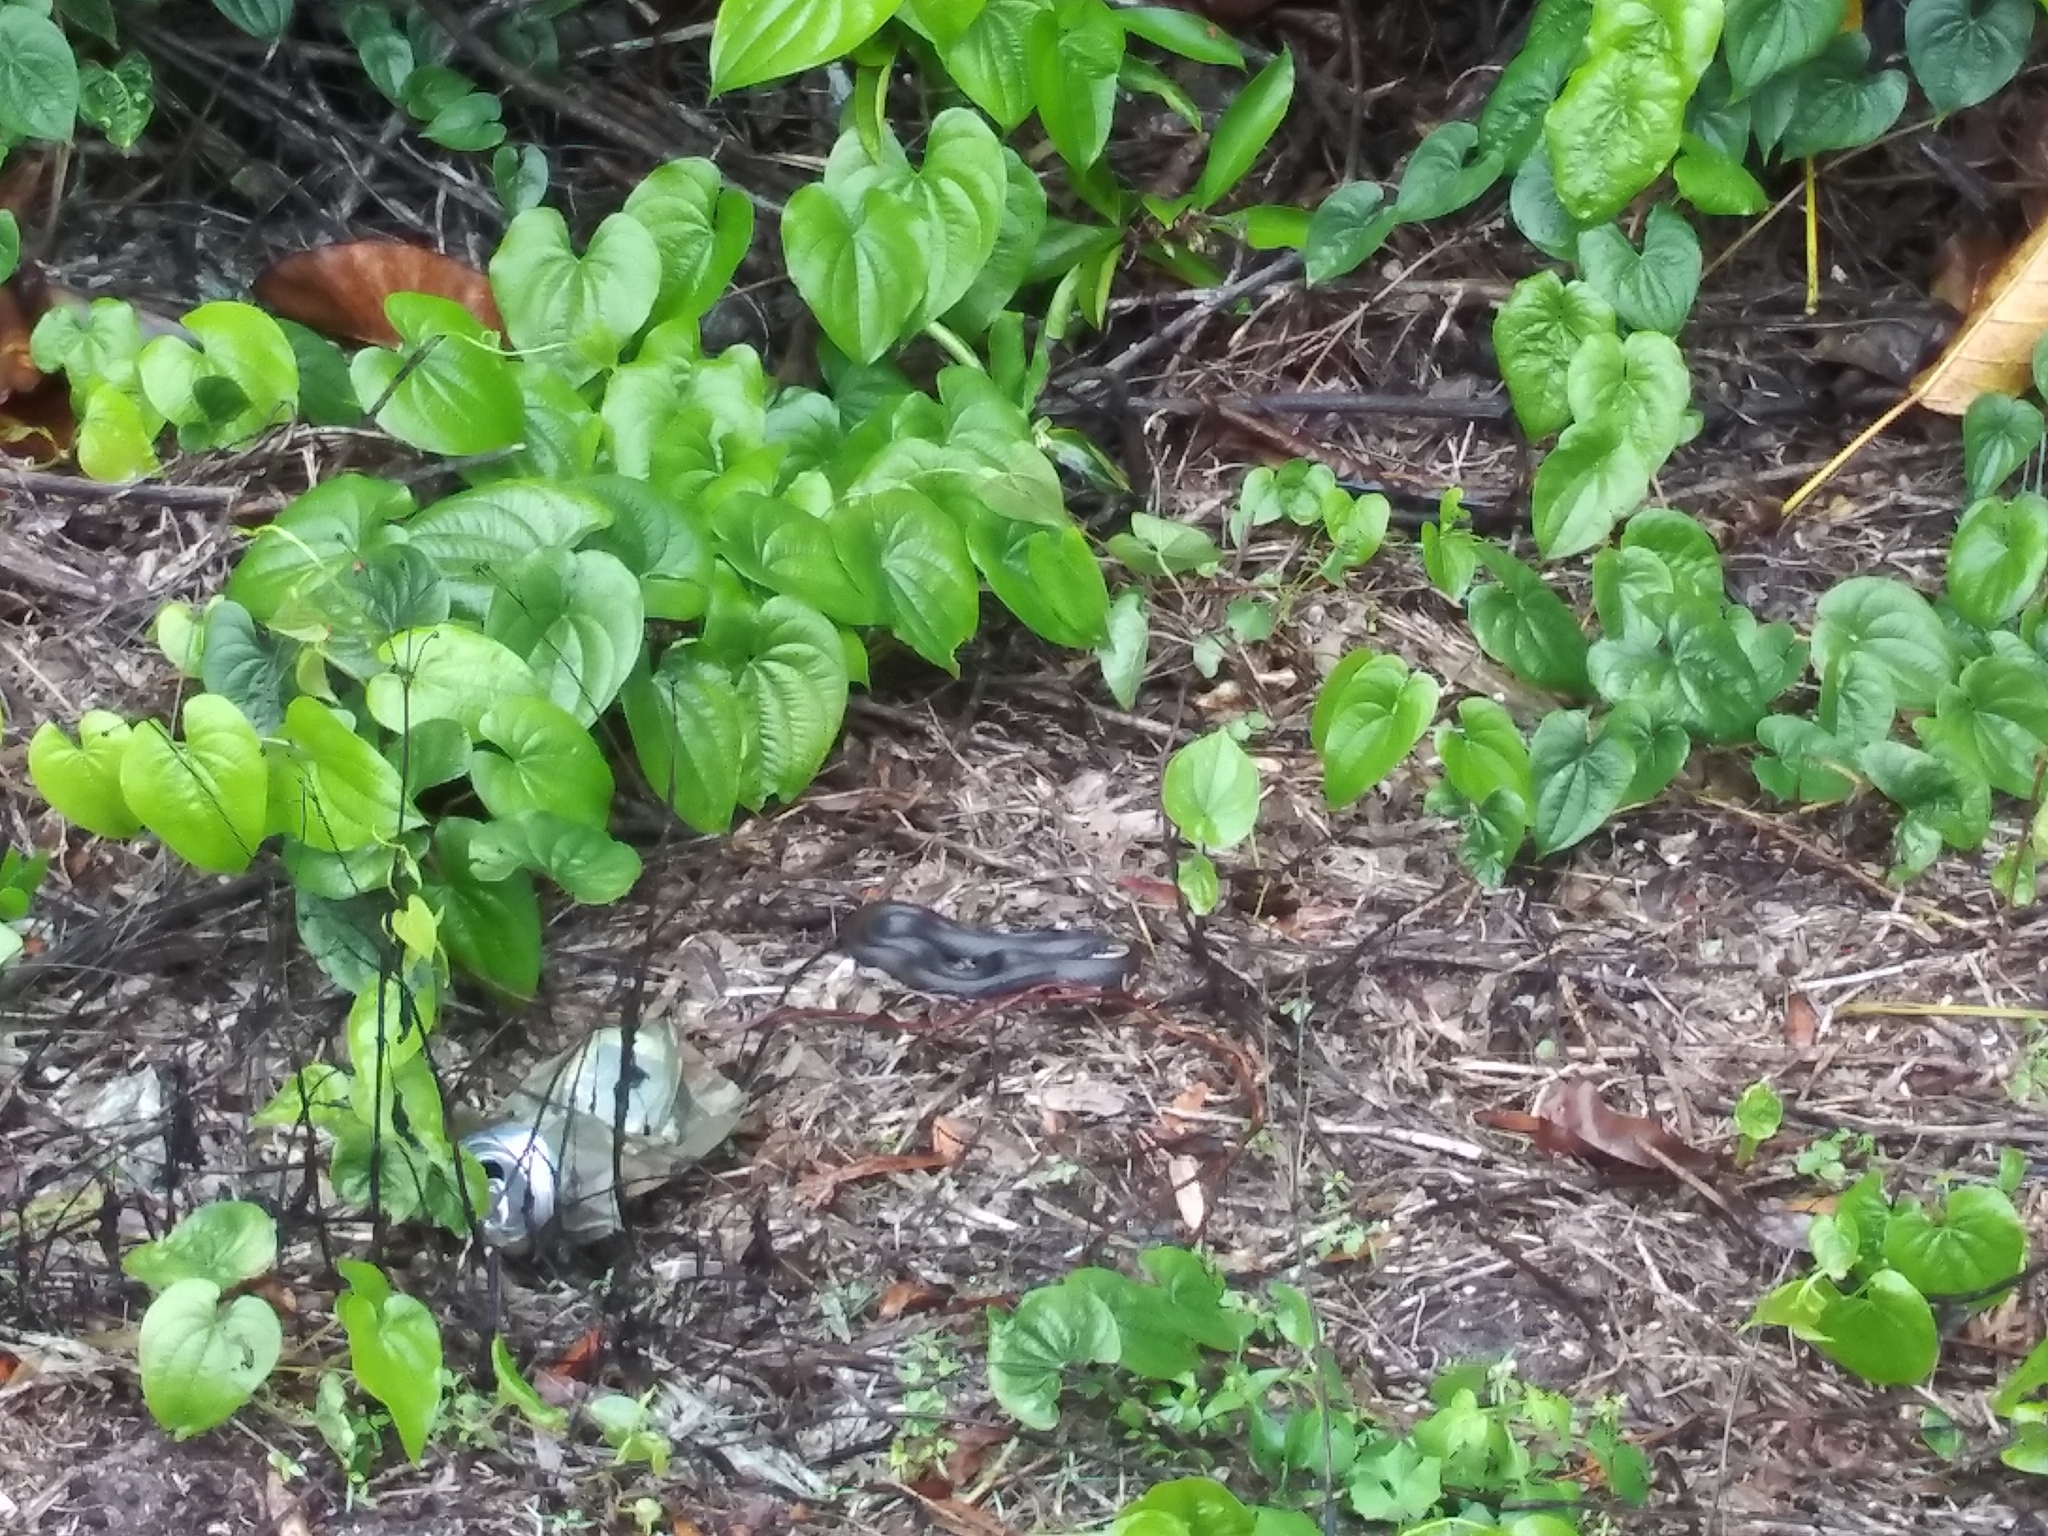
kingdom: Animalia
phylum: Chordata
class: Squamata
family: Colubridae
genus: Coluber
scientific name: Coluber constrictor
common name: Eastern racer
